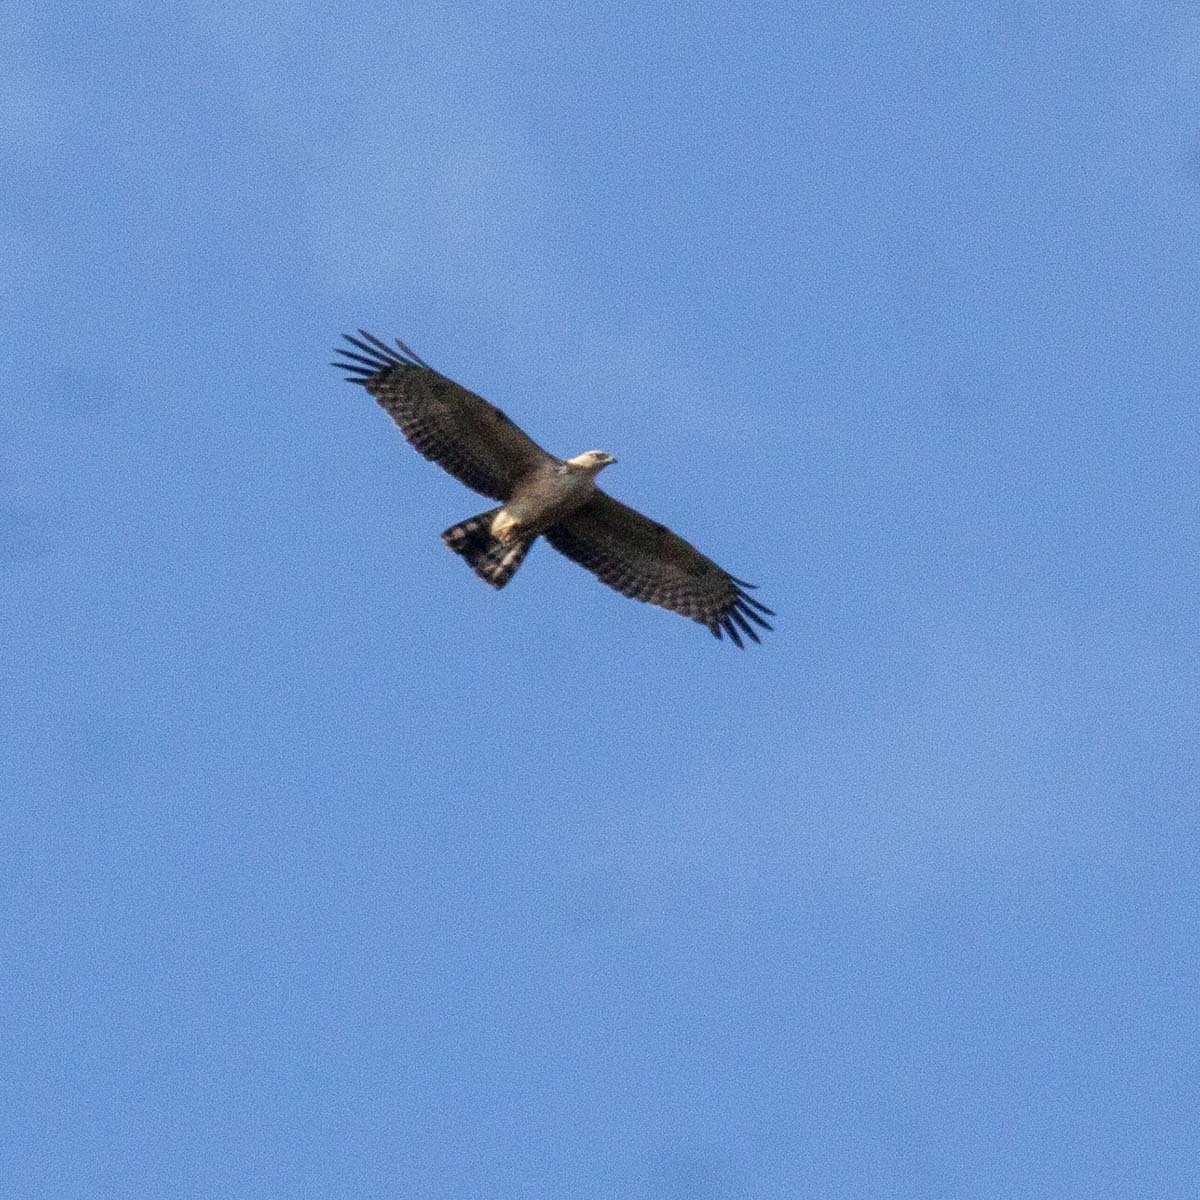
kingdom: Animalia
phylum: Chordata
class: Aves
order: Accipitriformes
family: Accipitridae
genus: Pernis
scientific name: Pernis ptilorhynchus
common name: Crested honey buzzard
